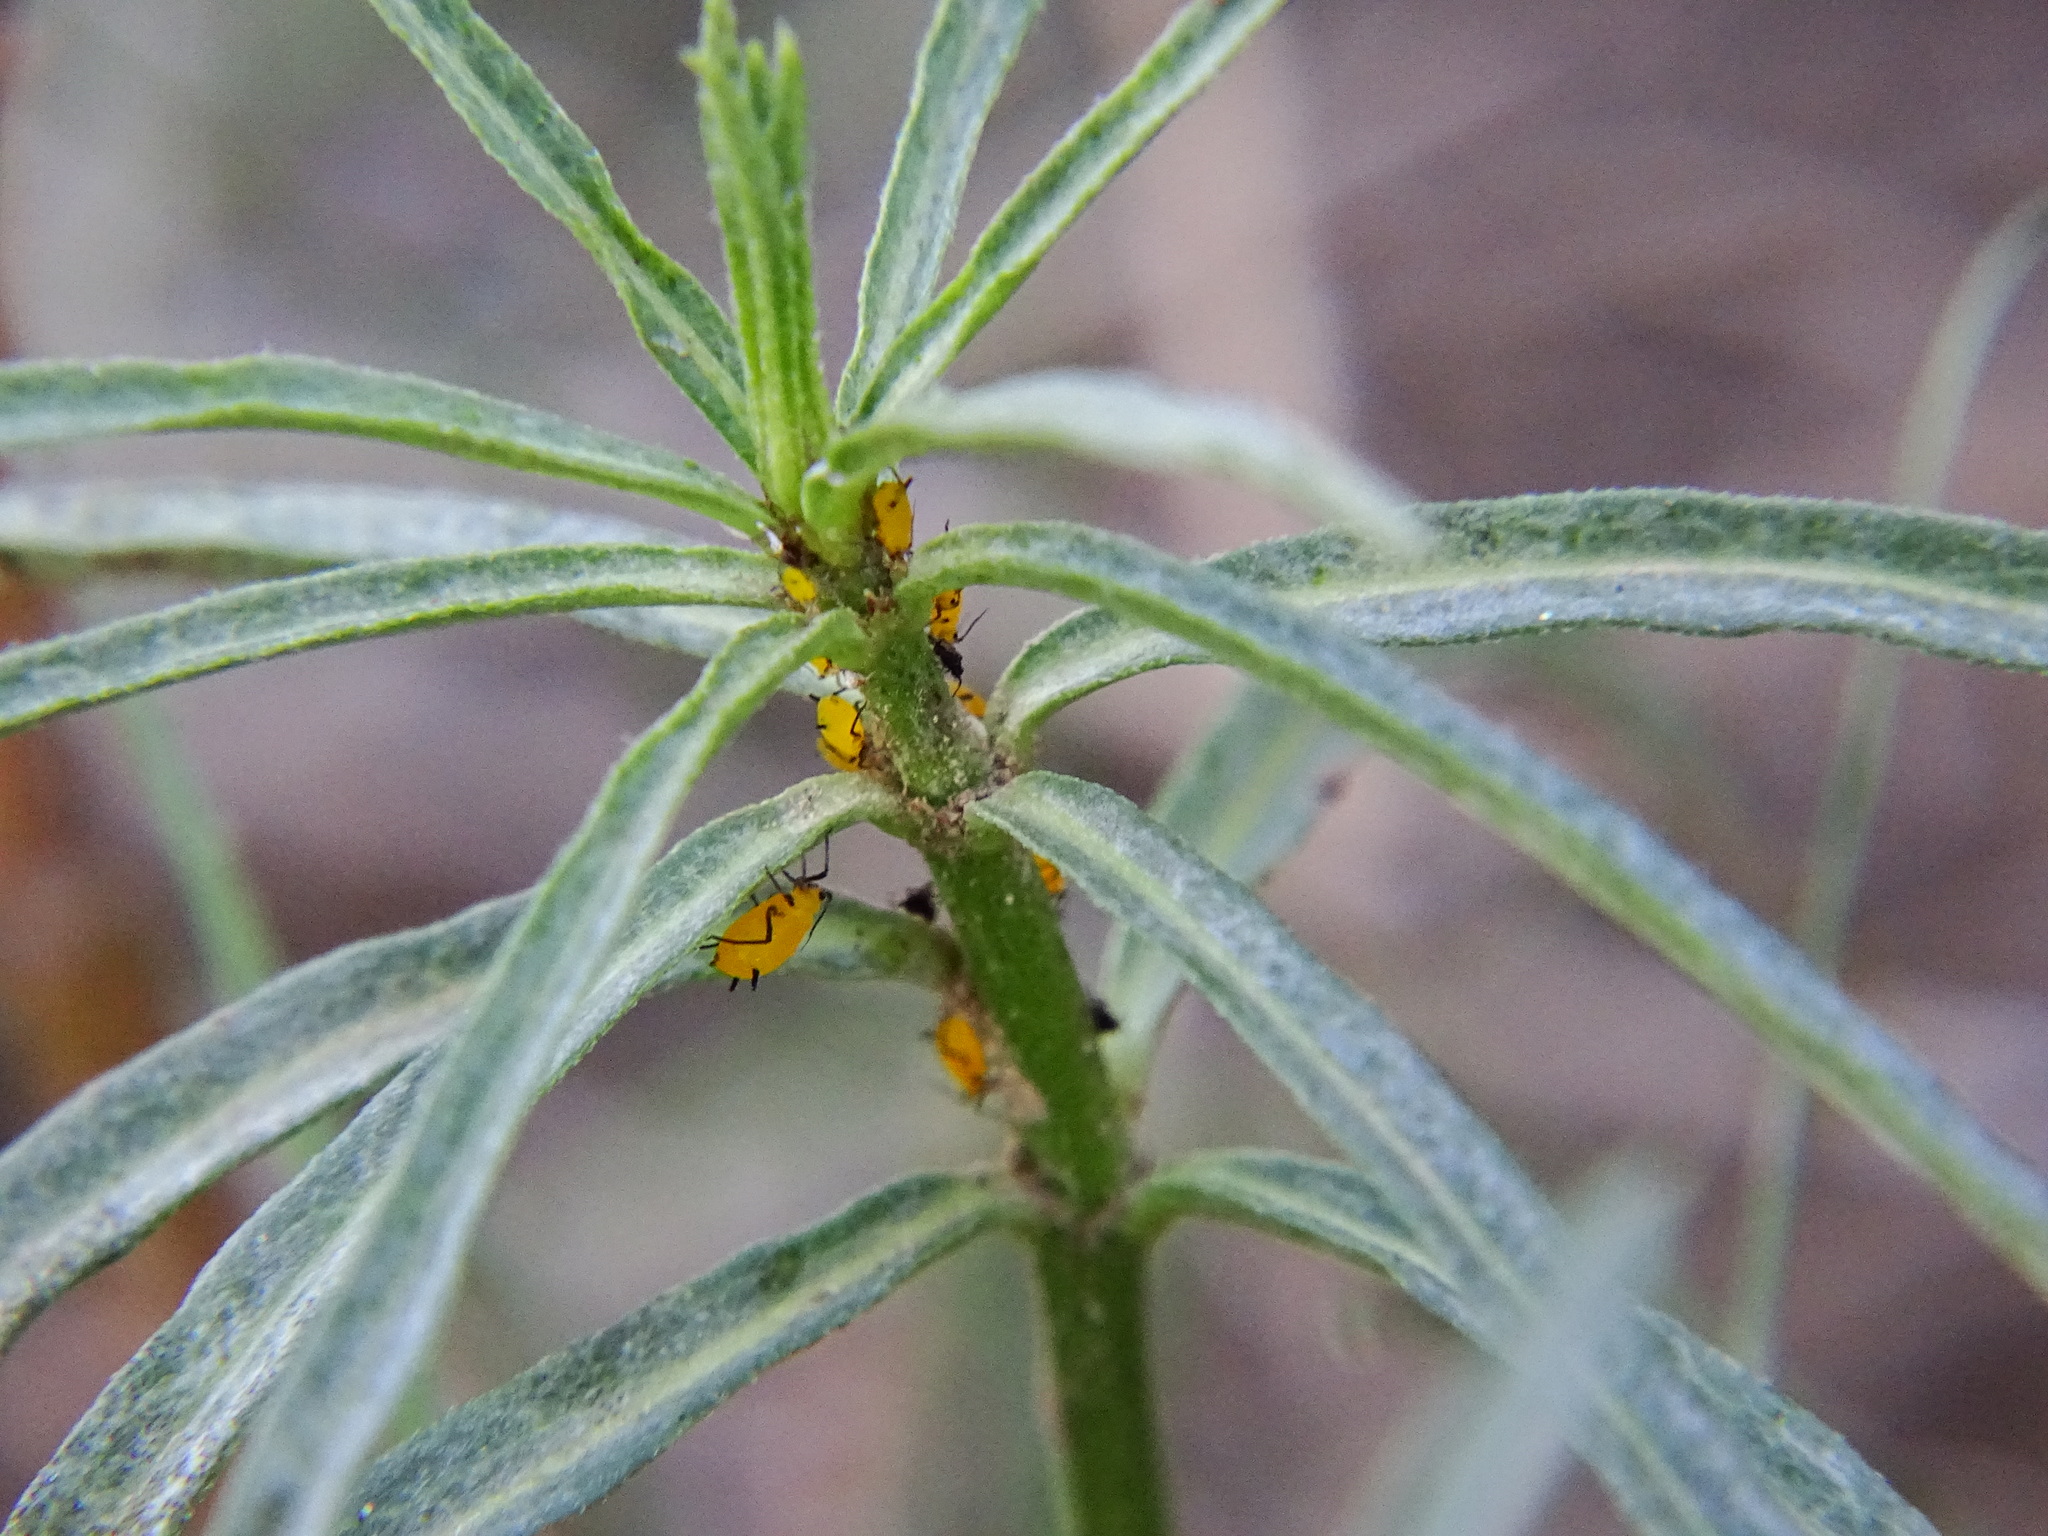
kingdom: Plantae
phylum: Tracheophyta
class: Magnoliopsida
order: Gentianales
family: Apocynaceae
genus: Asclepias
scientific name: Asclepias fascicularis
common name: Mexican milkweed
